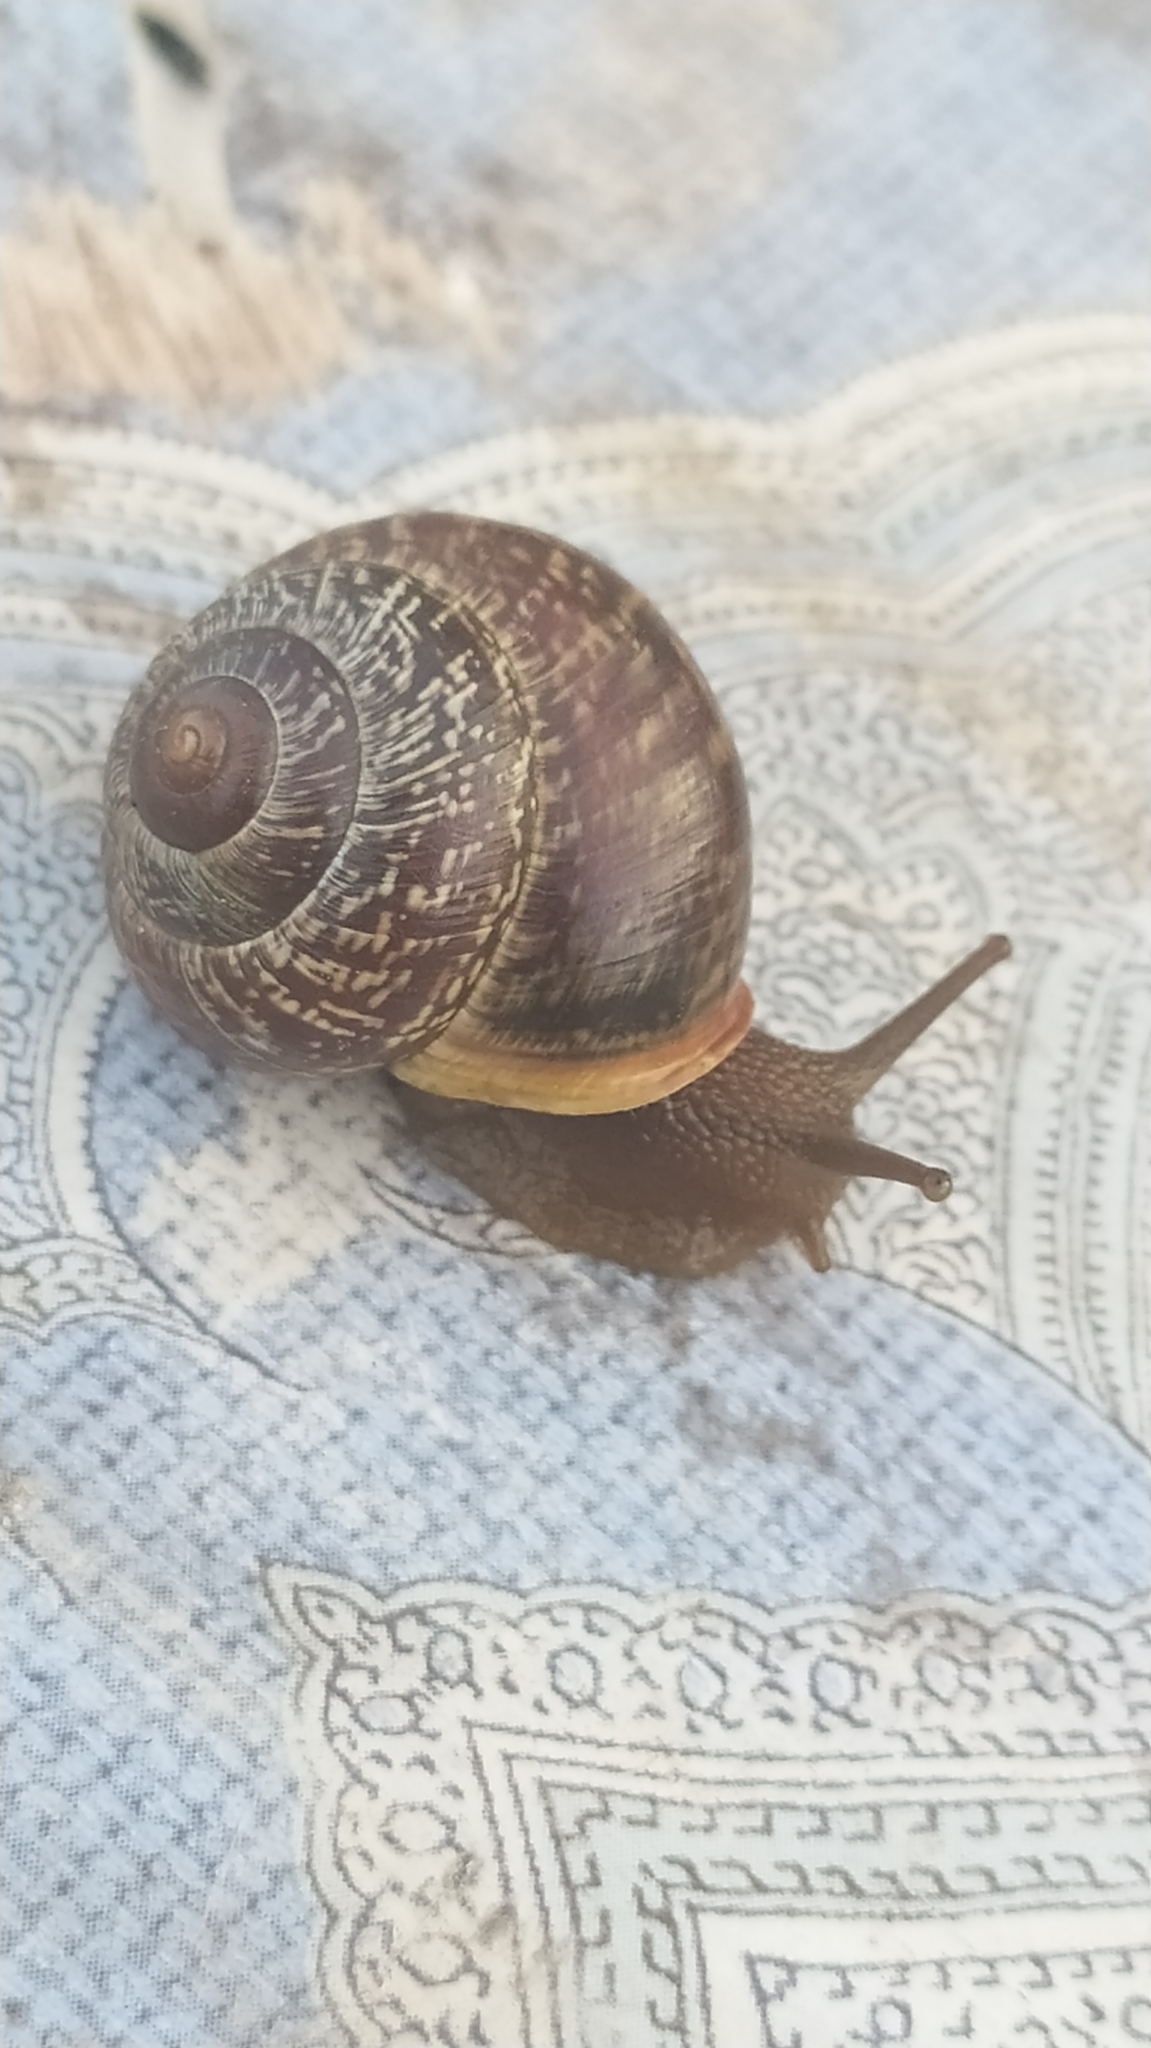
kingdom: Animalia
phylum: Mollusca
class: Gastropoda
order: Stylommatophora
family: Helicidae
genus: Arianta
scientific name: Arianta arbustorum
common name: Copse snail
